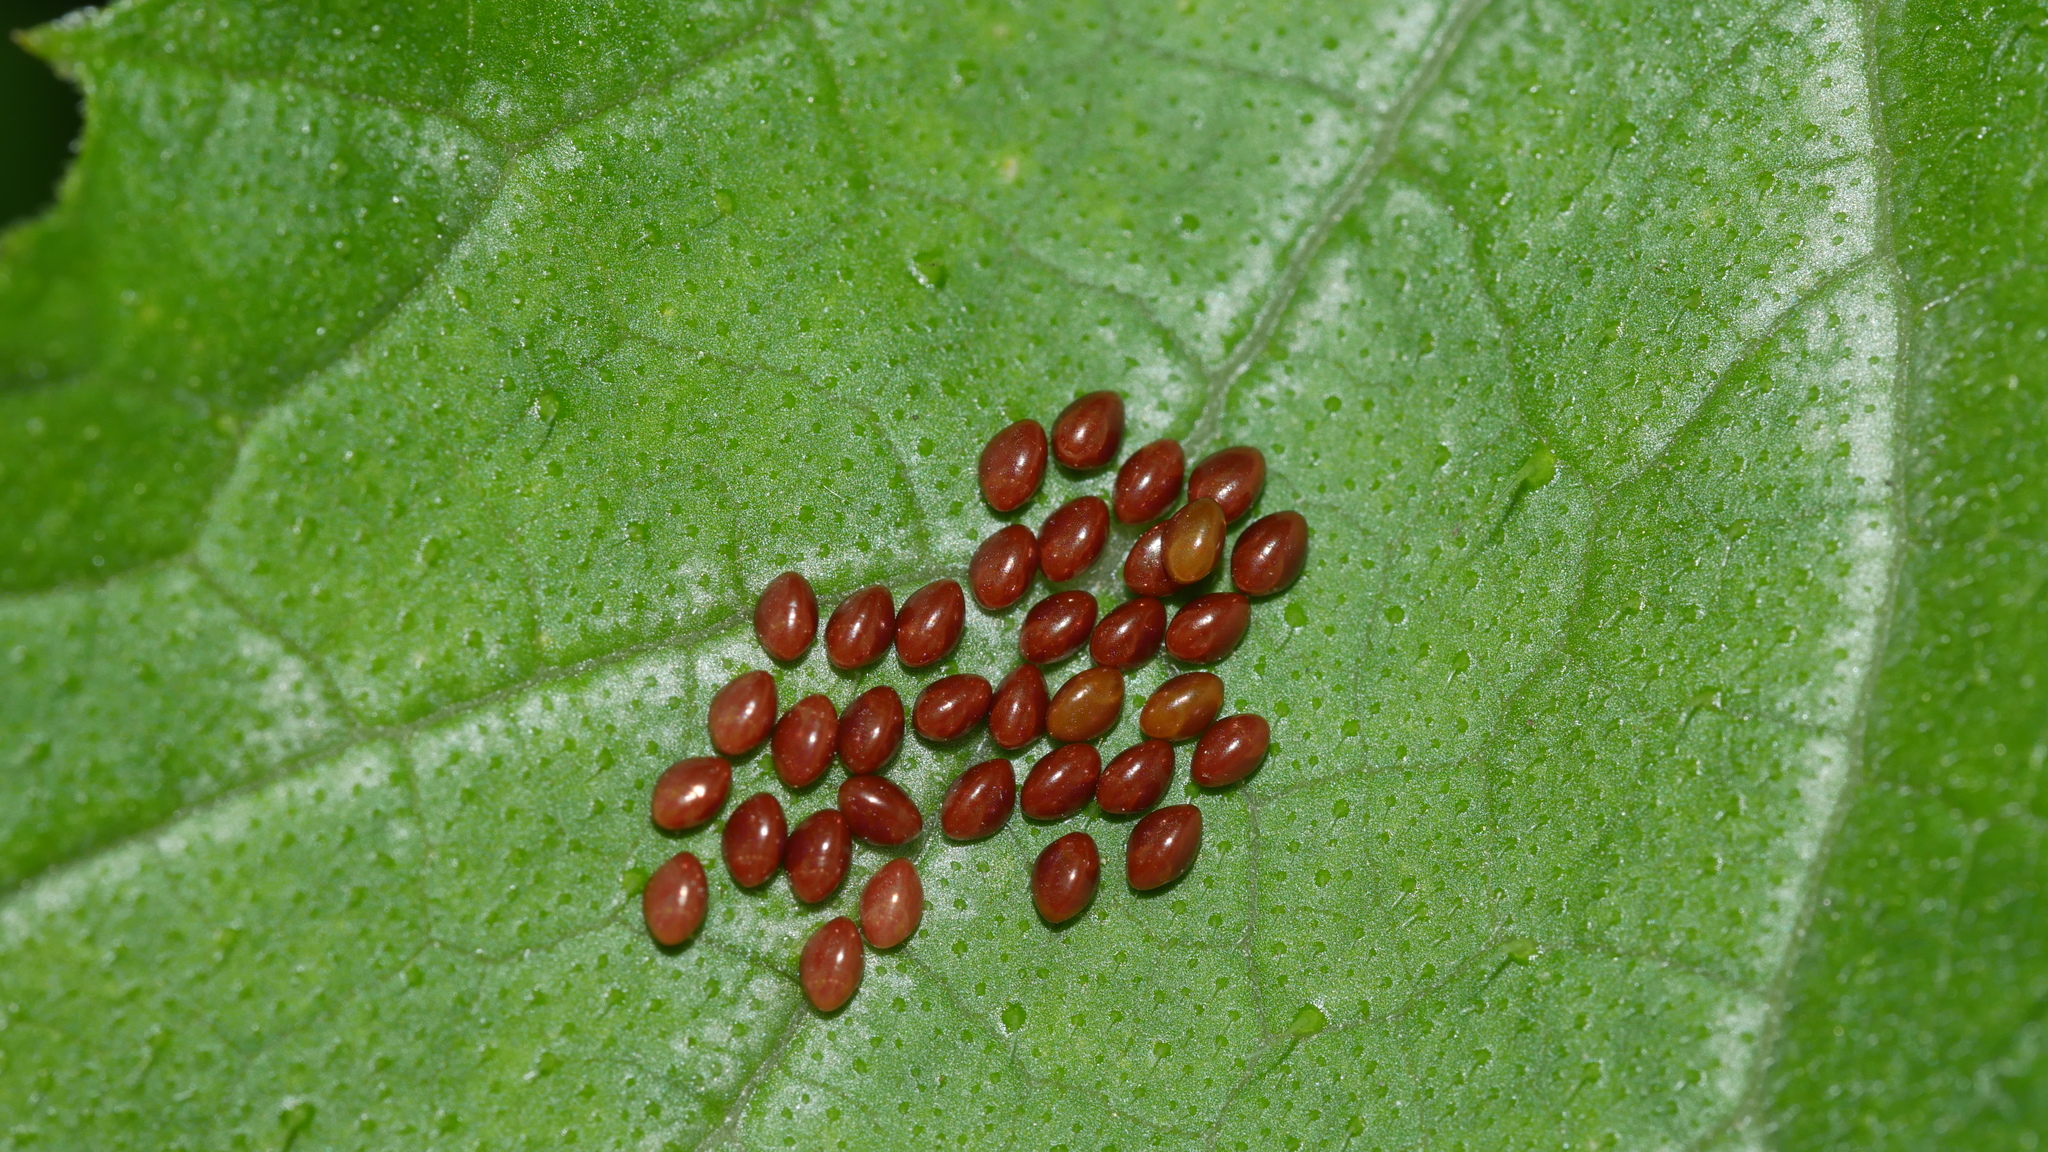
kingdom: Animalia
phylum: Arthropoda
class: Insecta
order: Hemiptera
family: Coreidae
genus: Anasa
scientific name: Anasa tristis
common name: Squash bug
